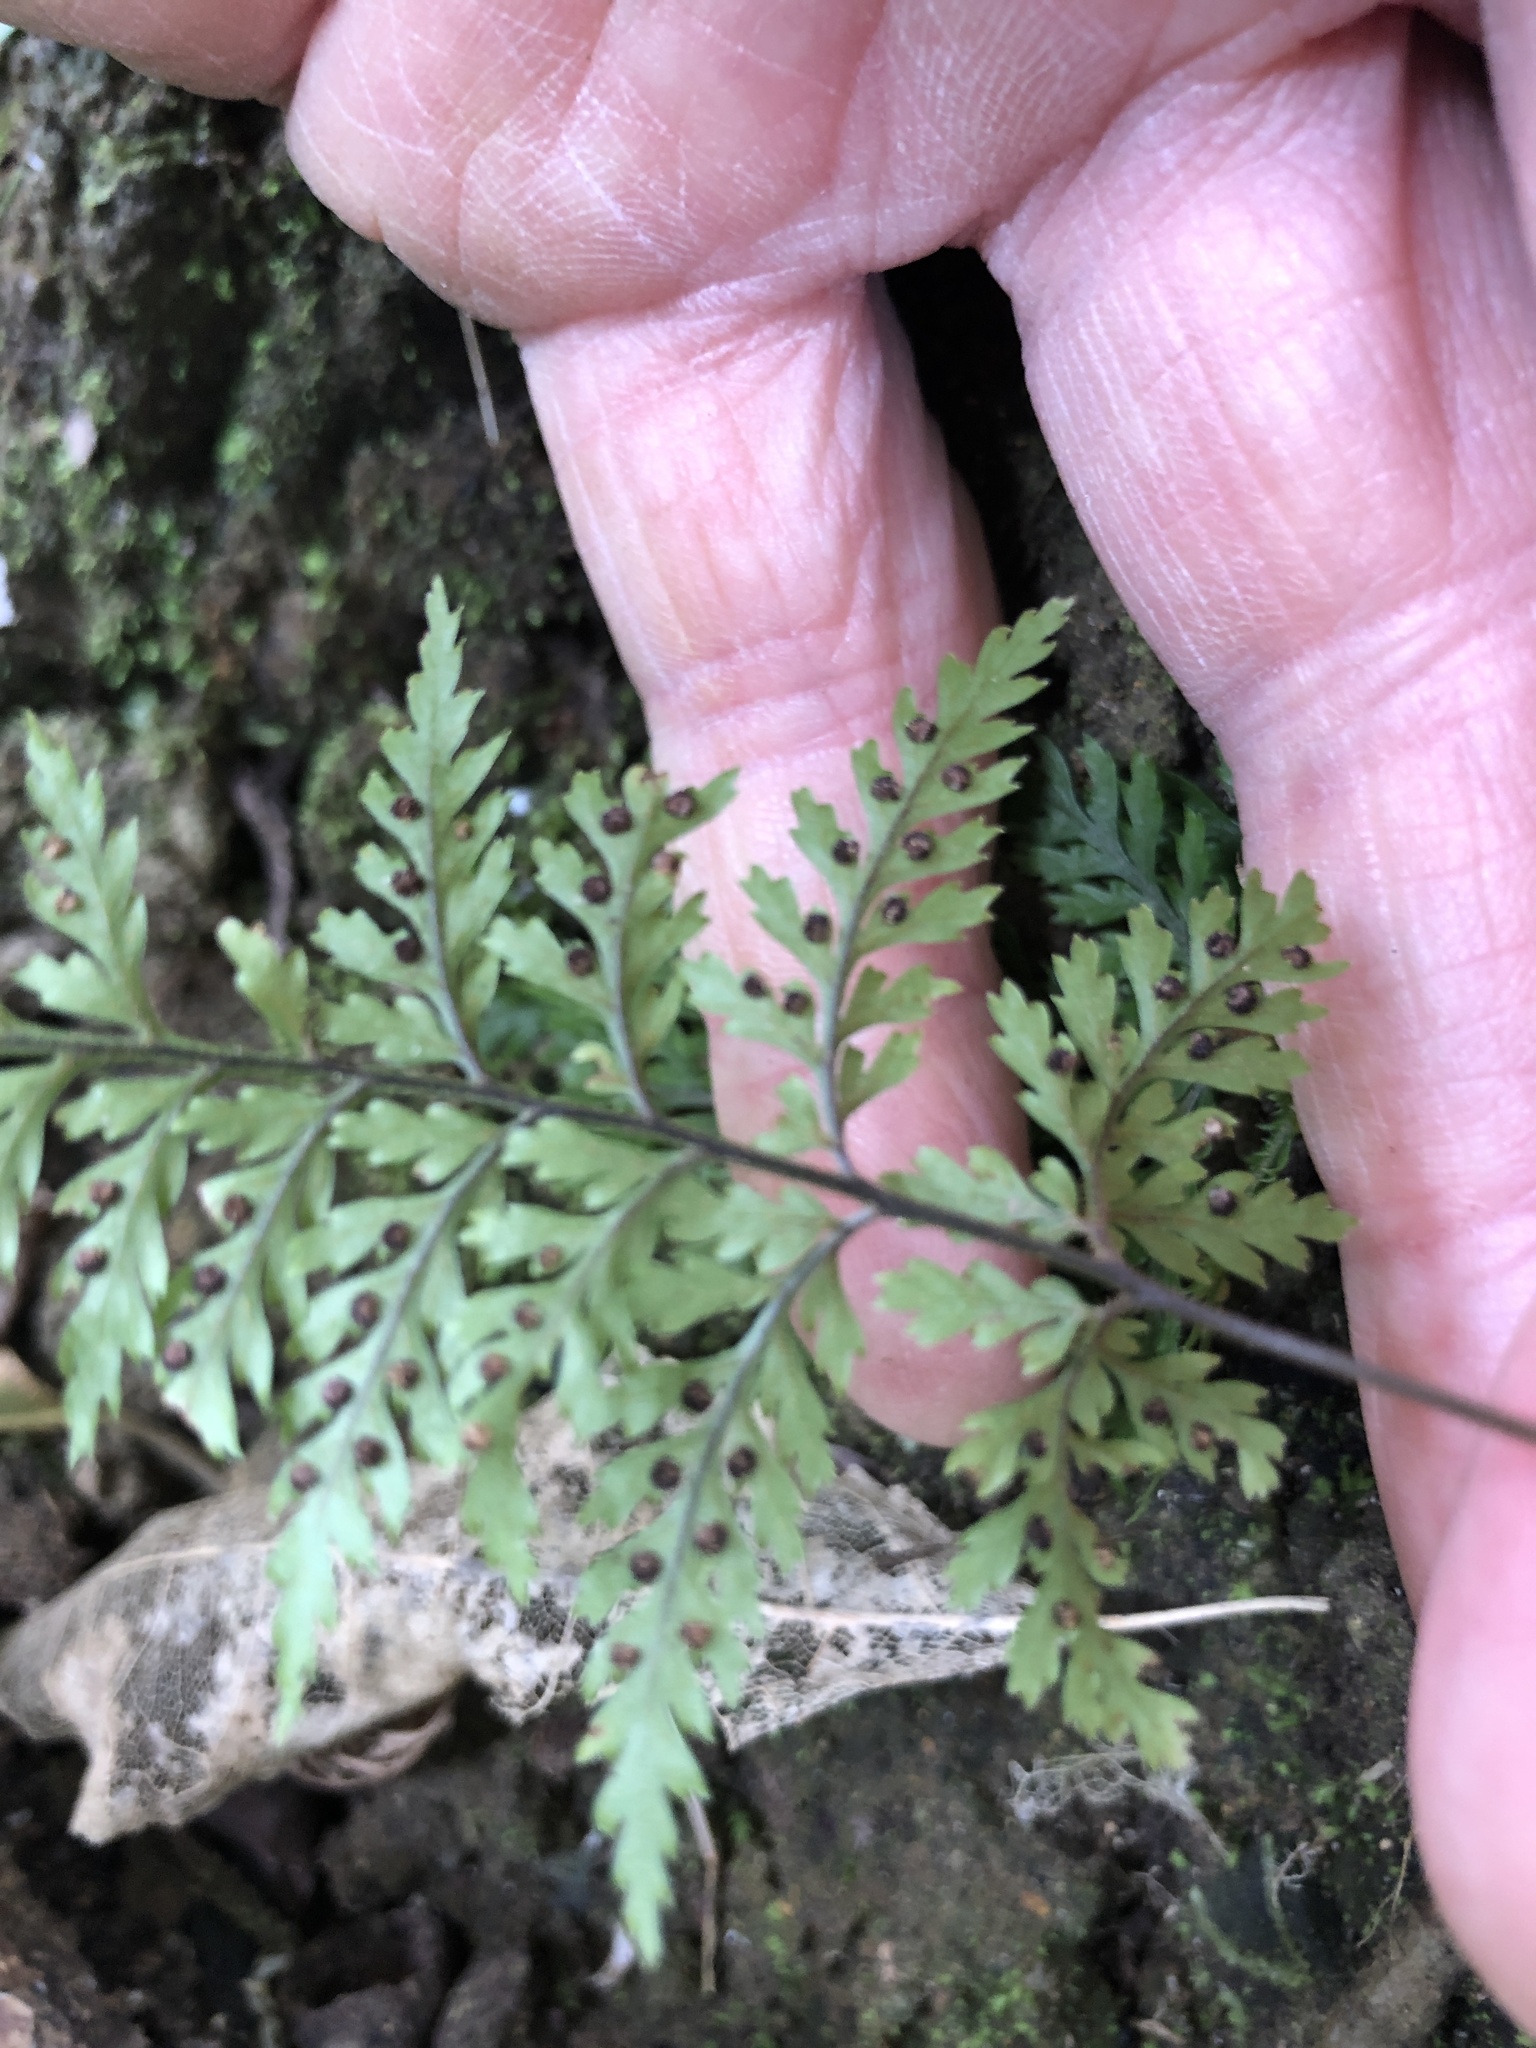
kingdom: Plantae
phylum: Tracheophyta
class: Polypodiopsida
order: Polypodiales
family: Dryopteridaceae
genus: Parapolystichum
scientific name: Parapolystichum glabellum
